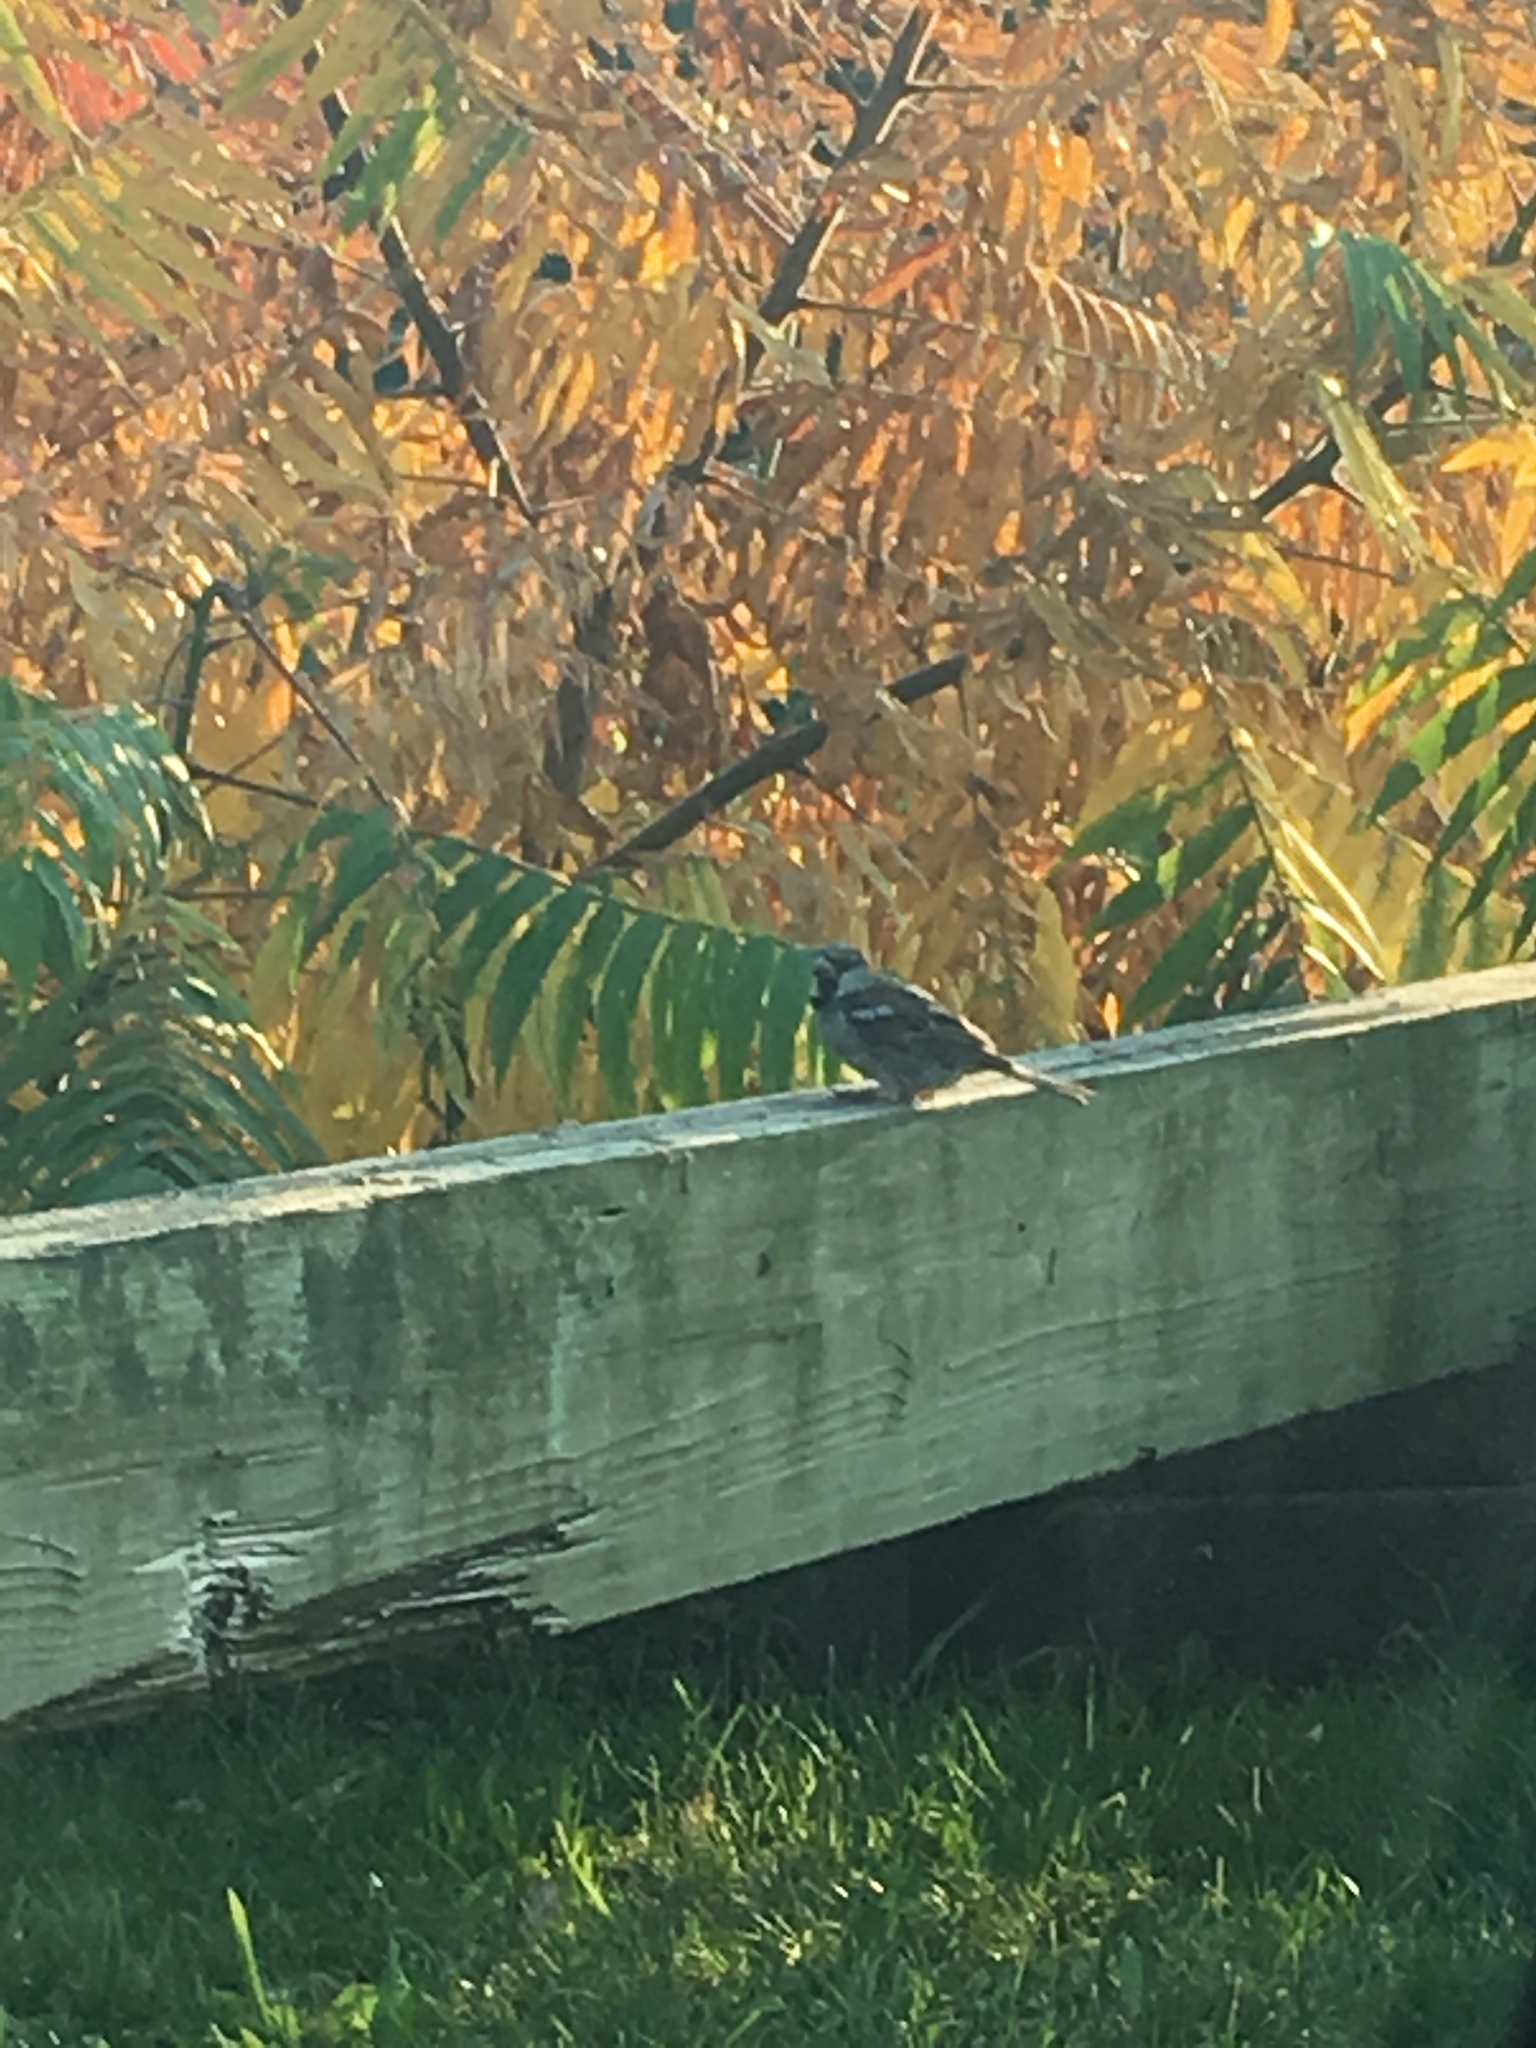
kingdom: Animalia
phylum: Chordata
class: Aves
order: Passeriformes
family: Passeridae
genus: Passer
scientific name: Passer domesticus
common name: House sparrow
